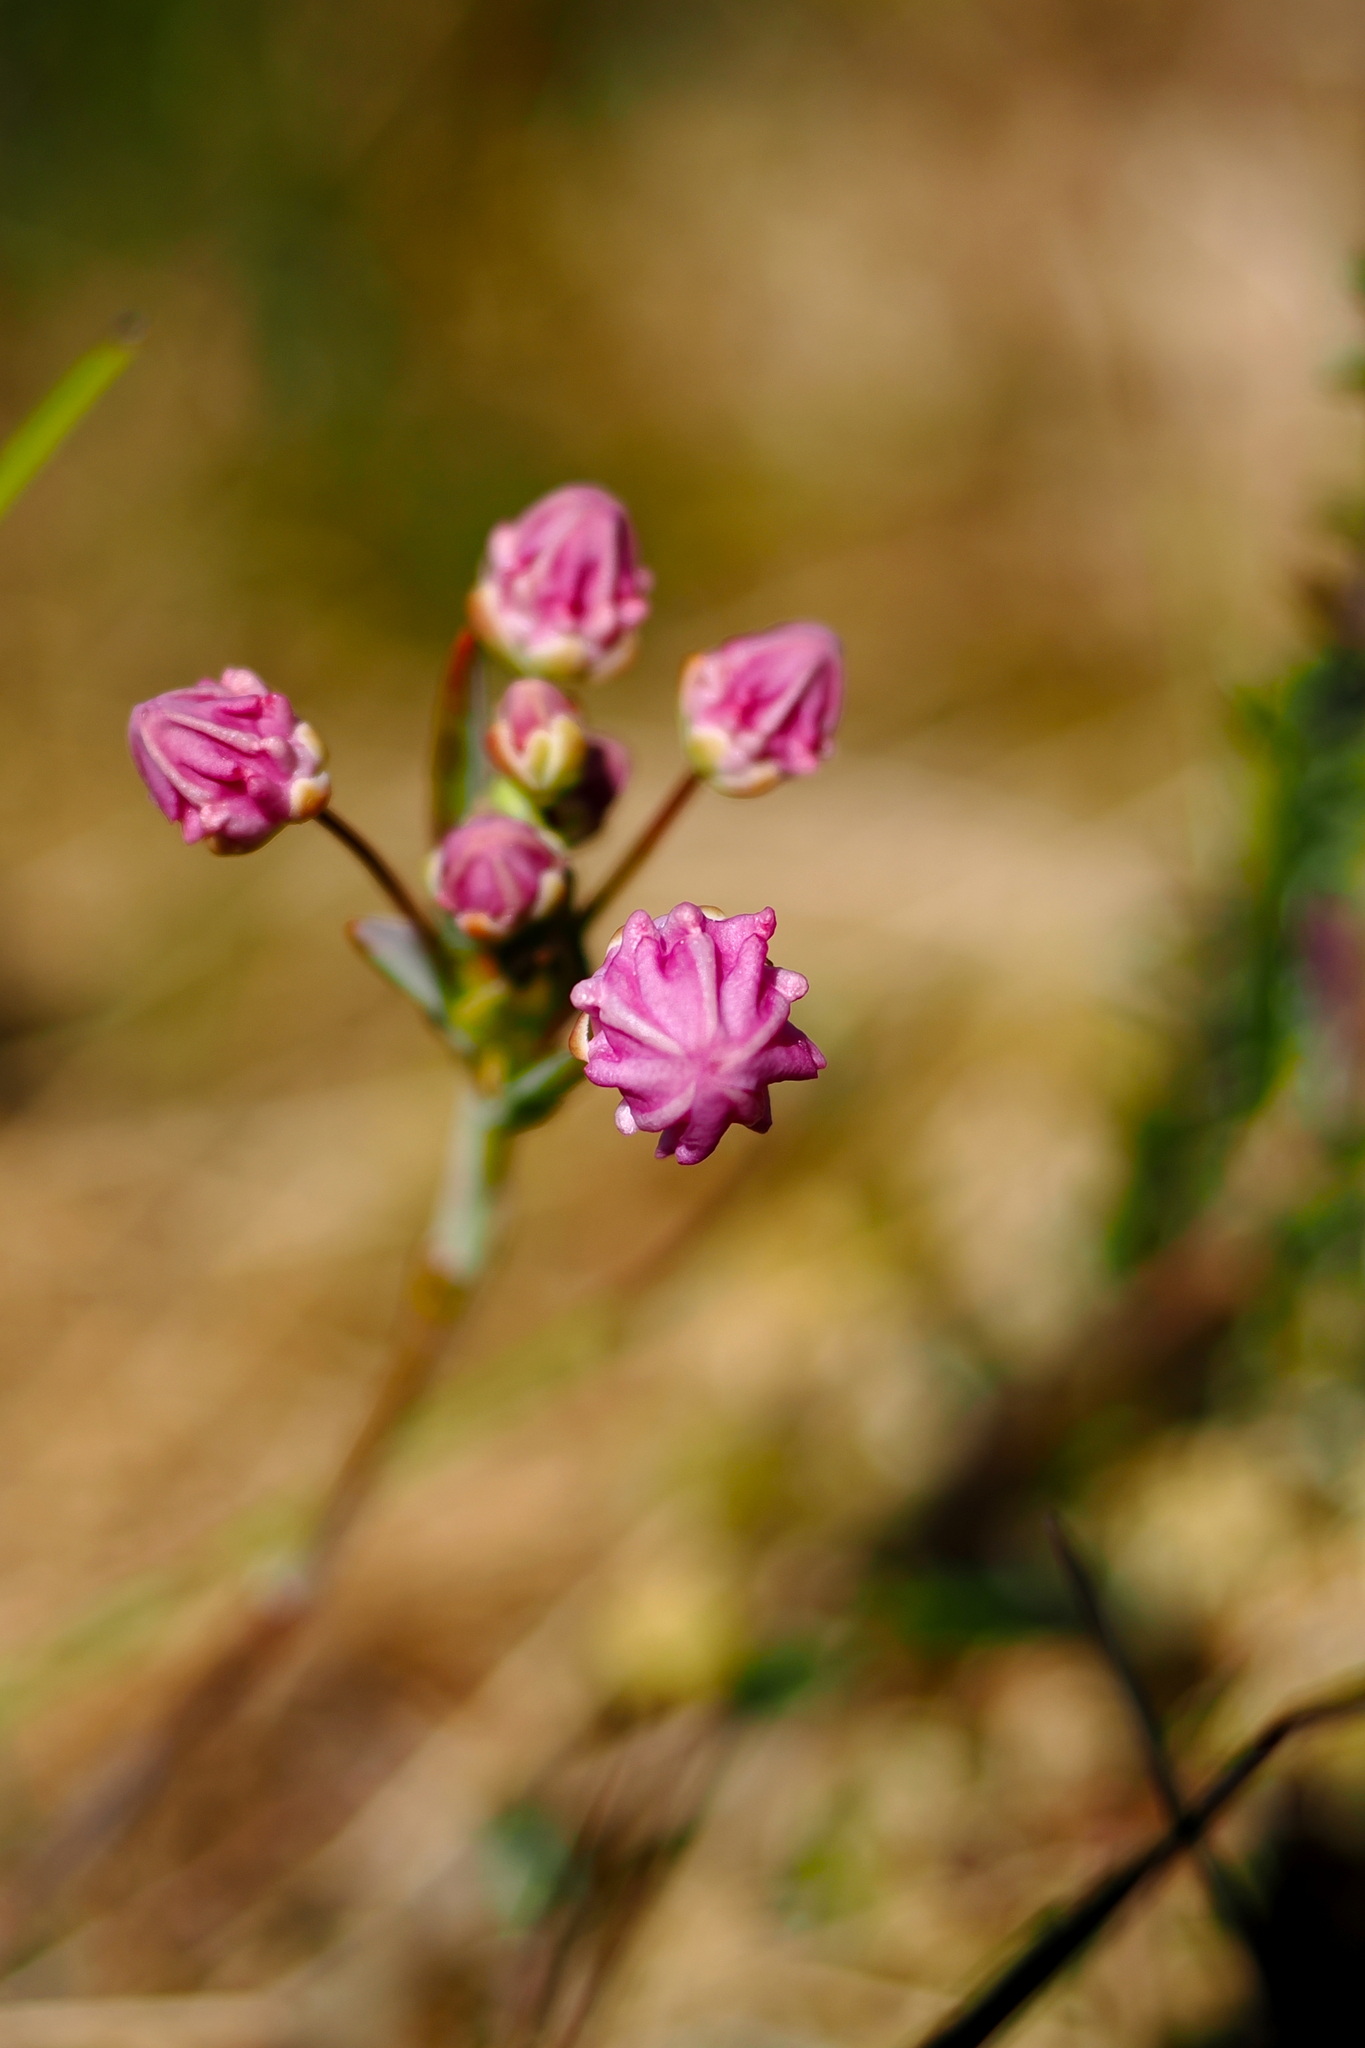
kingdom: Plantae
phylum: Tracheophyta
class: Magnoliopsida
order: Ericales
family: Ericaceae
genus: Kalmia
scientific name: Kalmia microphylla
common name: Alpine bog laurel
